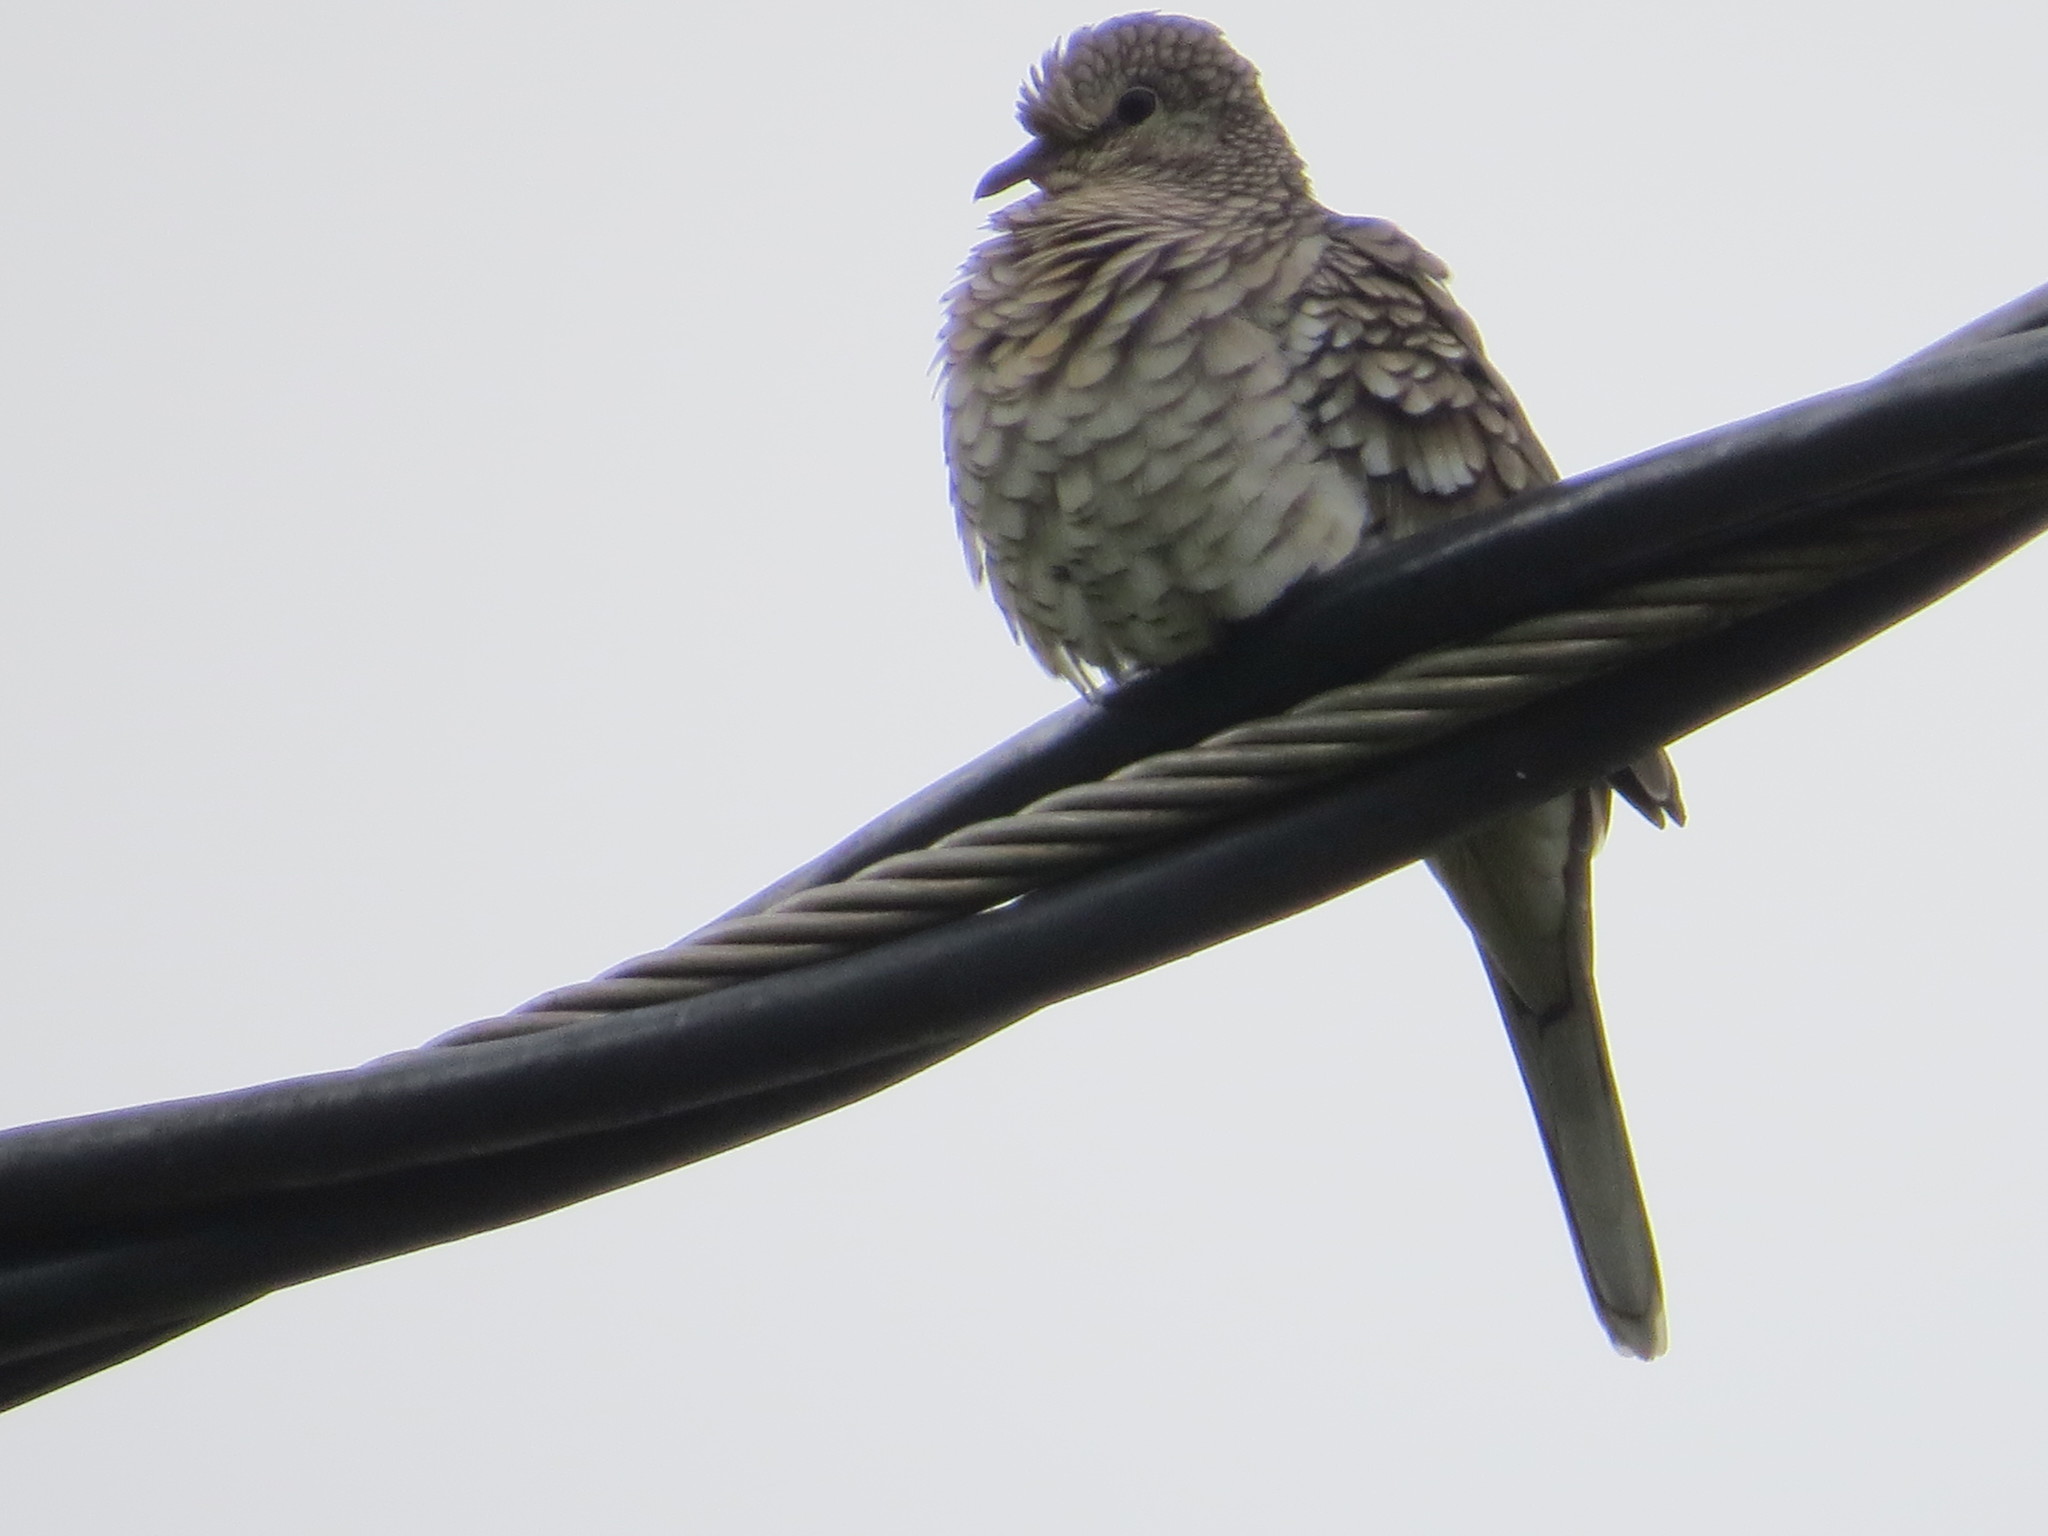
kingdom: Animalia
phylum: Chordata
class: Aves
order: Columbiformes
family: Columbidae
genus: Columbina
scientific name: Columbina squammata
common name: Scaled dove
